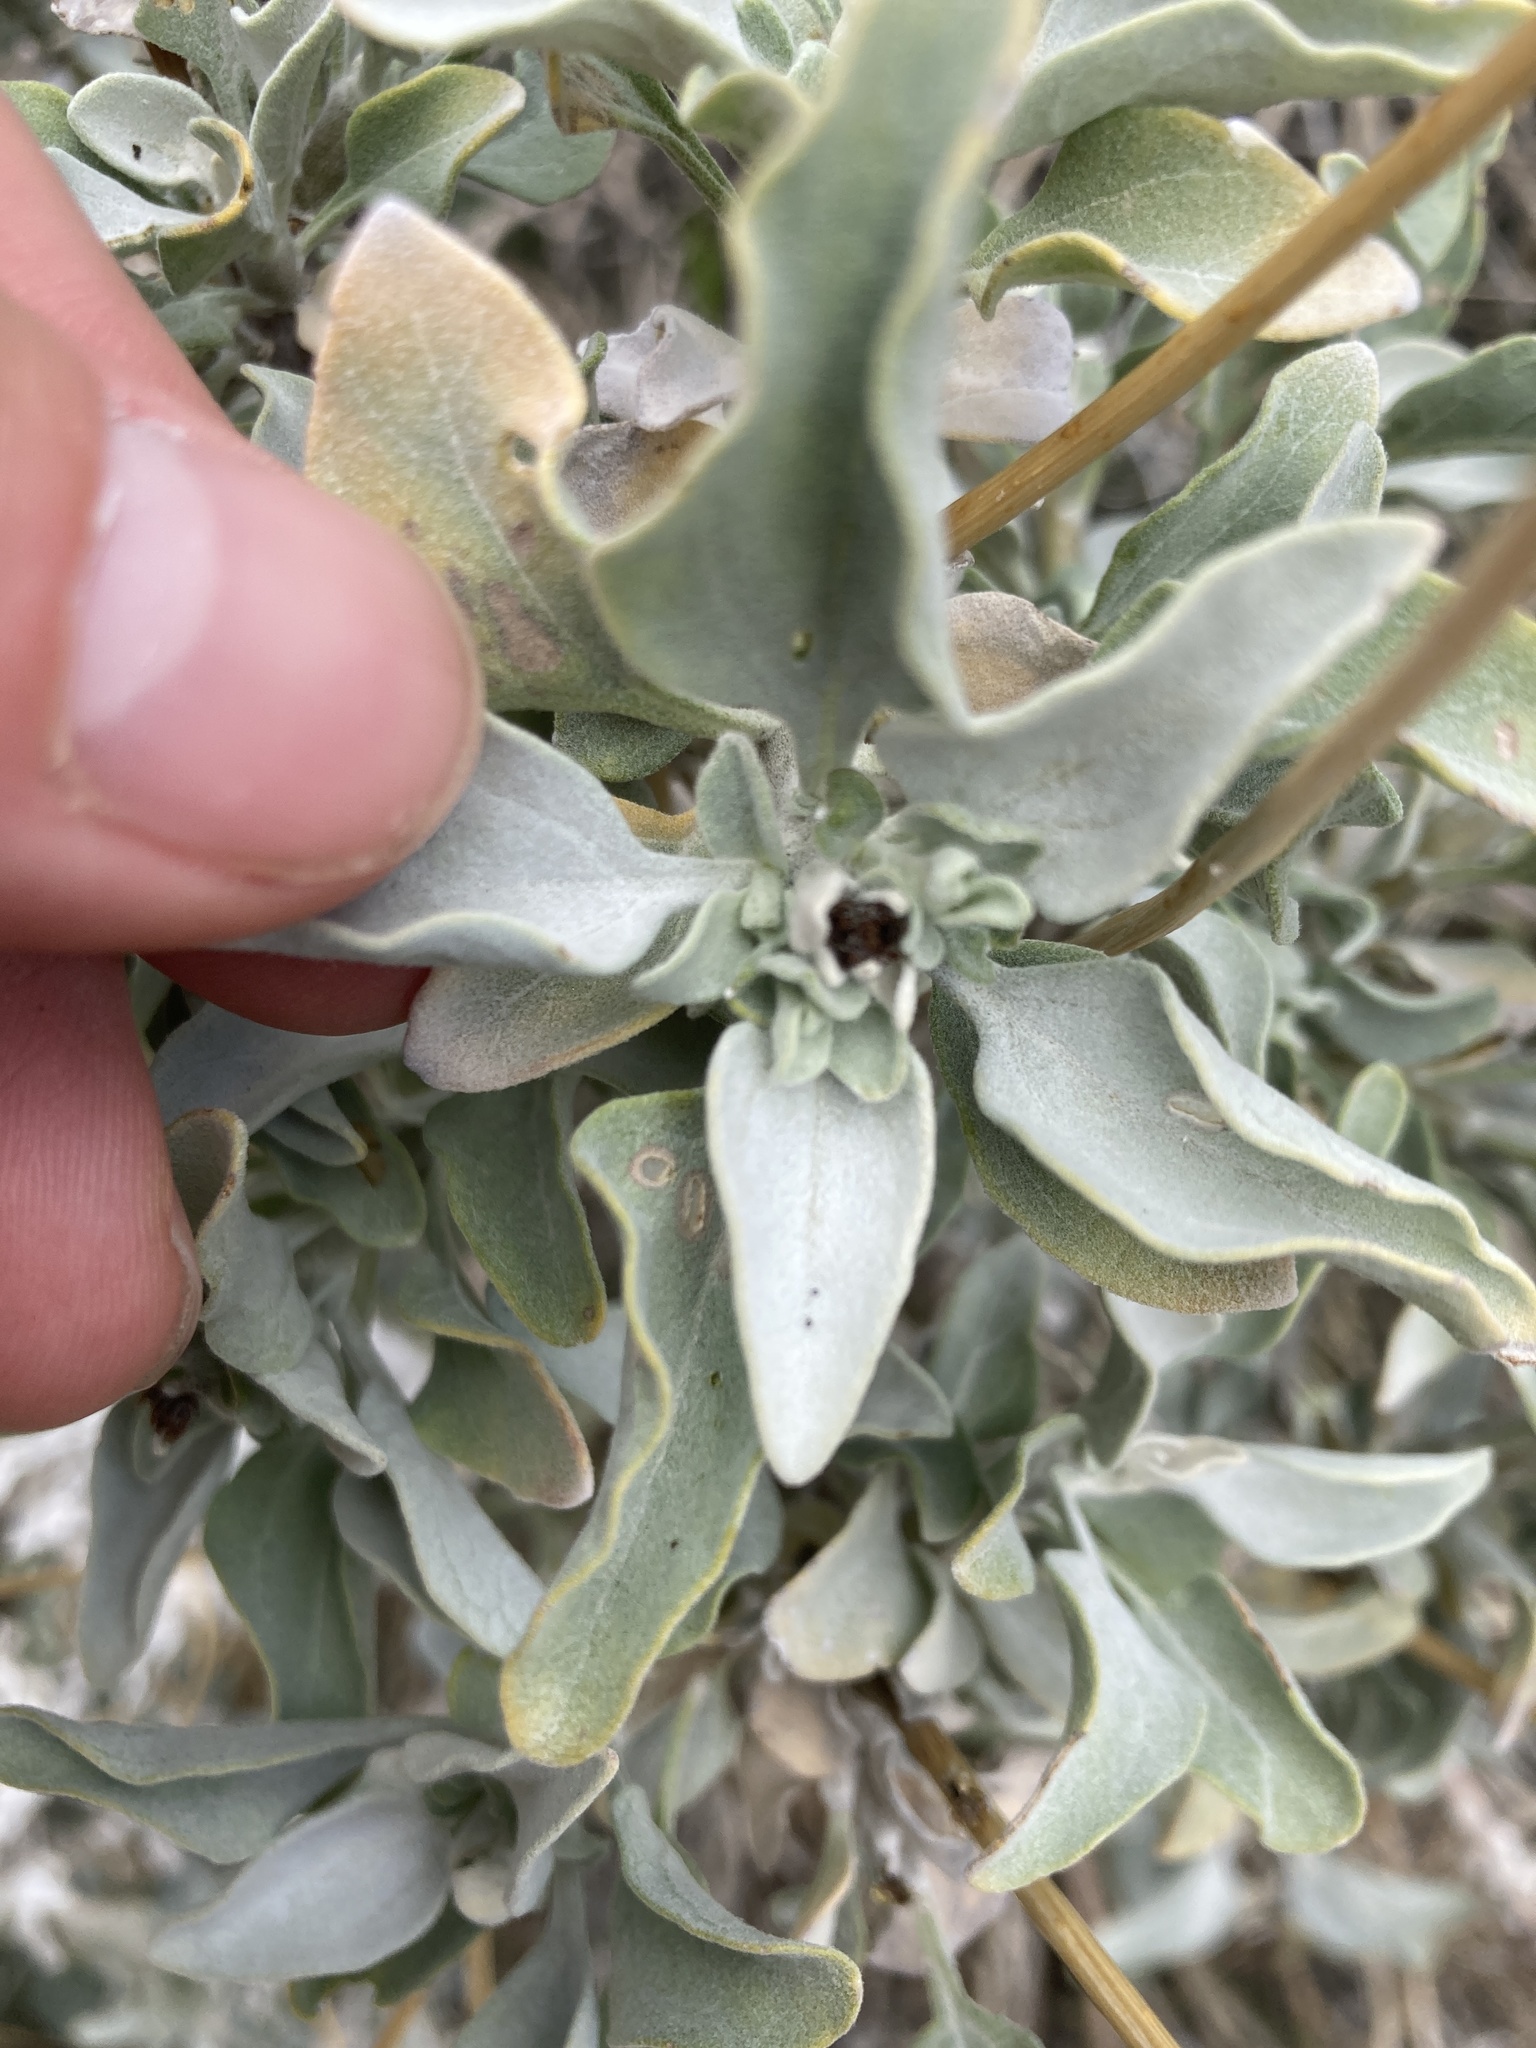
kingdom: Plantae
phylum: Tracheophyta
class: Magnoliopsida
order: Asterales
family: Asteraceae
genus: Encelia
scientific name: Encelia farinosa
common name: Brittlebush
